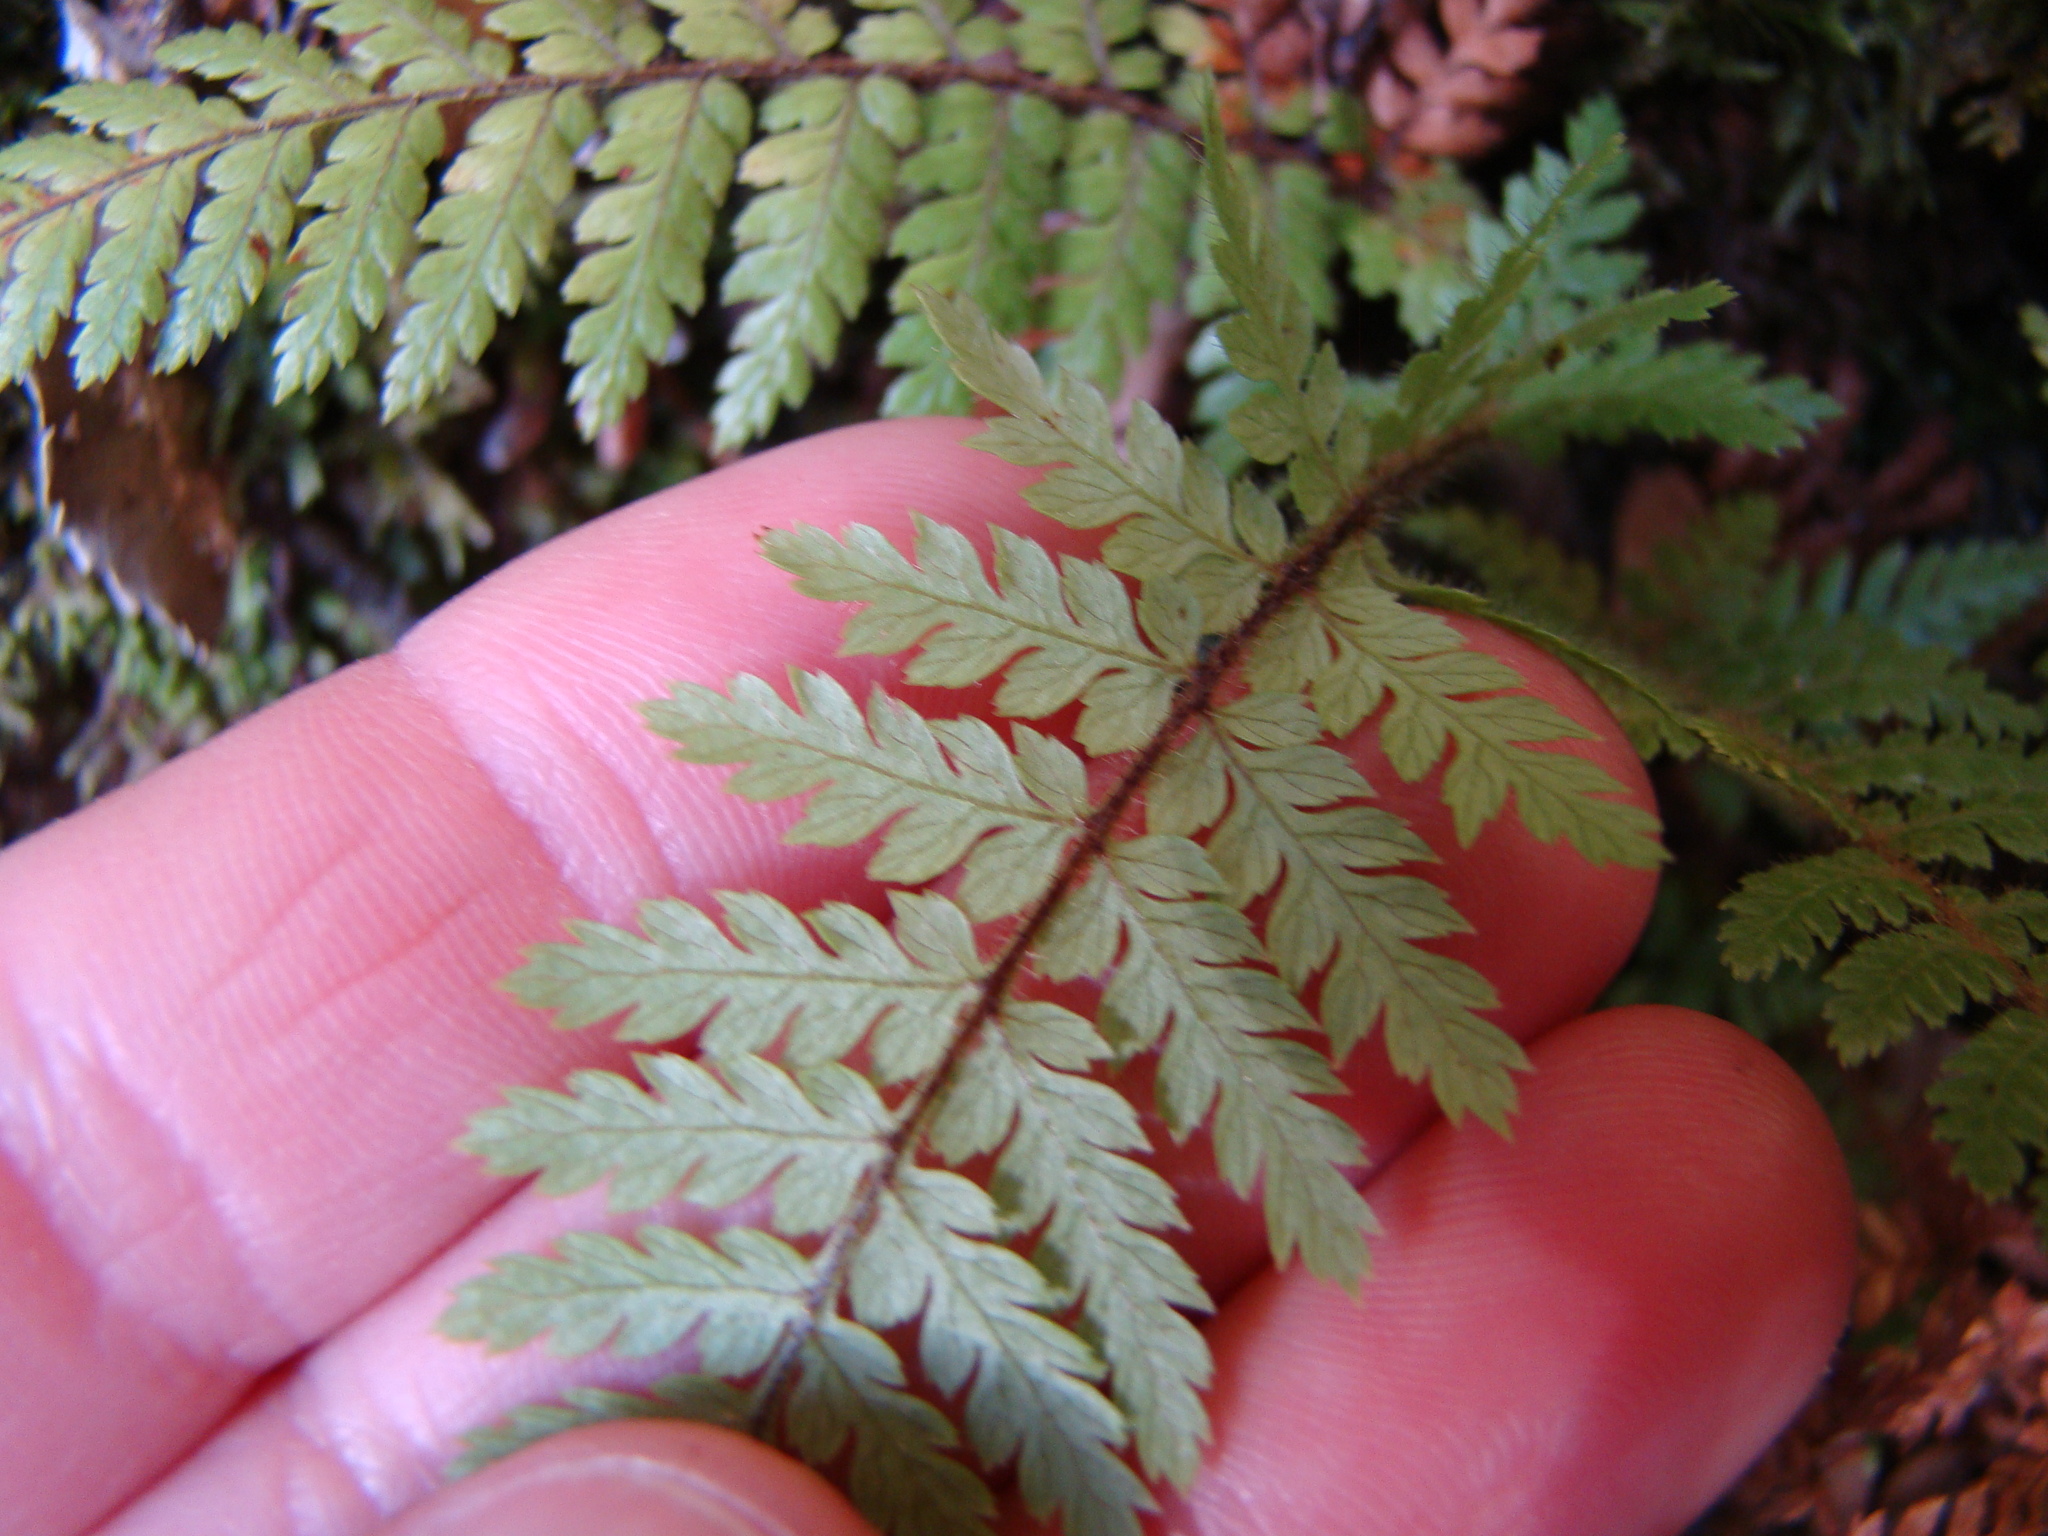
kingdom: Plantae
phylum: Tracheophyta
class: Polypodiopsida
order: Cyatheales
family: Dicksoniaceae
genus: Dicksonia
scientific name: Dicksonia squarrosa
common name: Hard treefern
